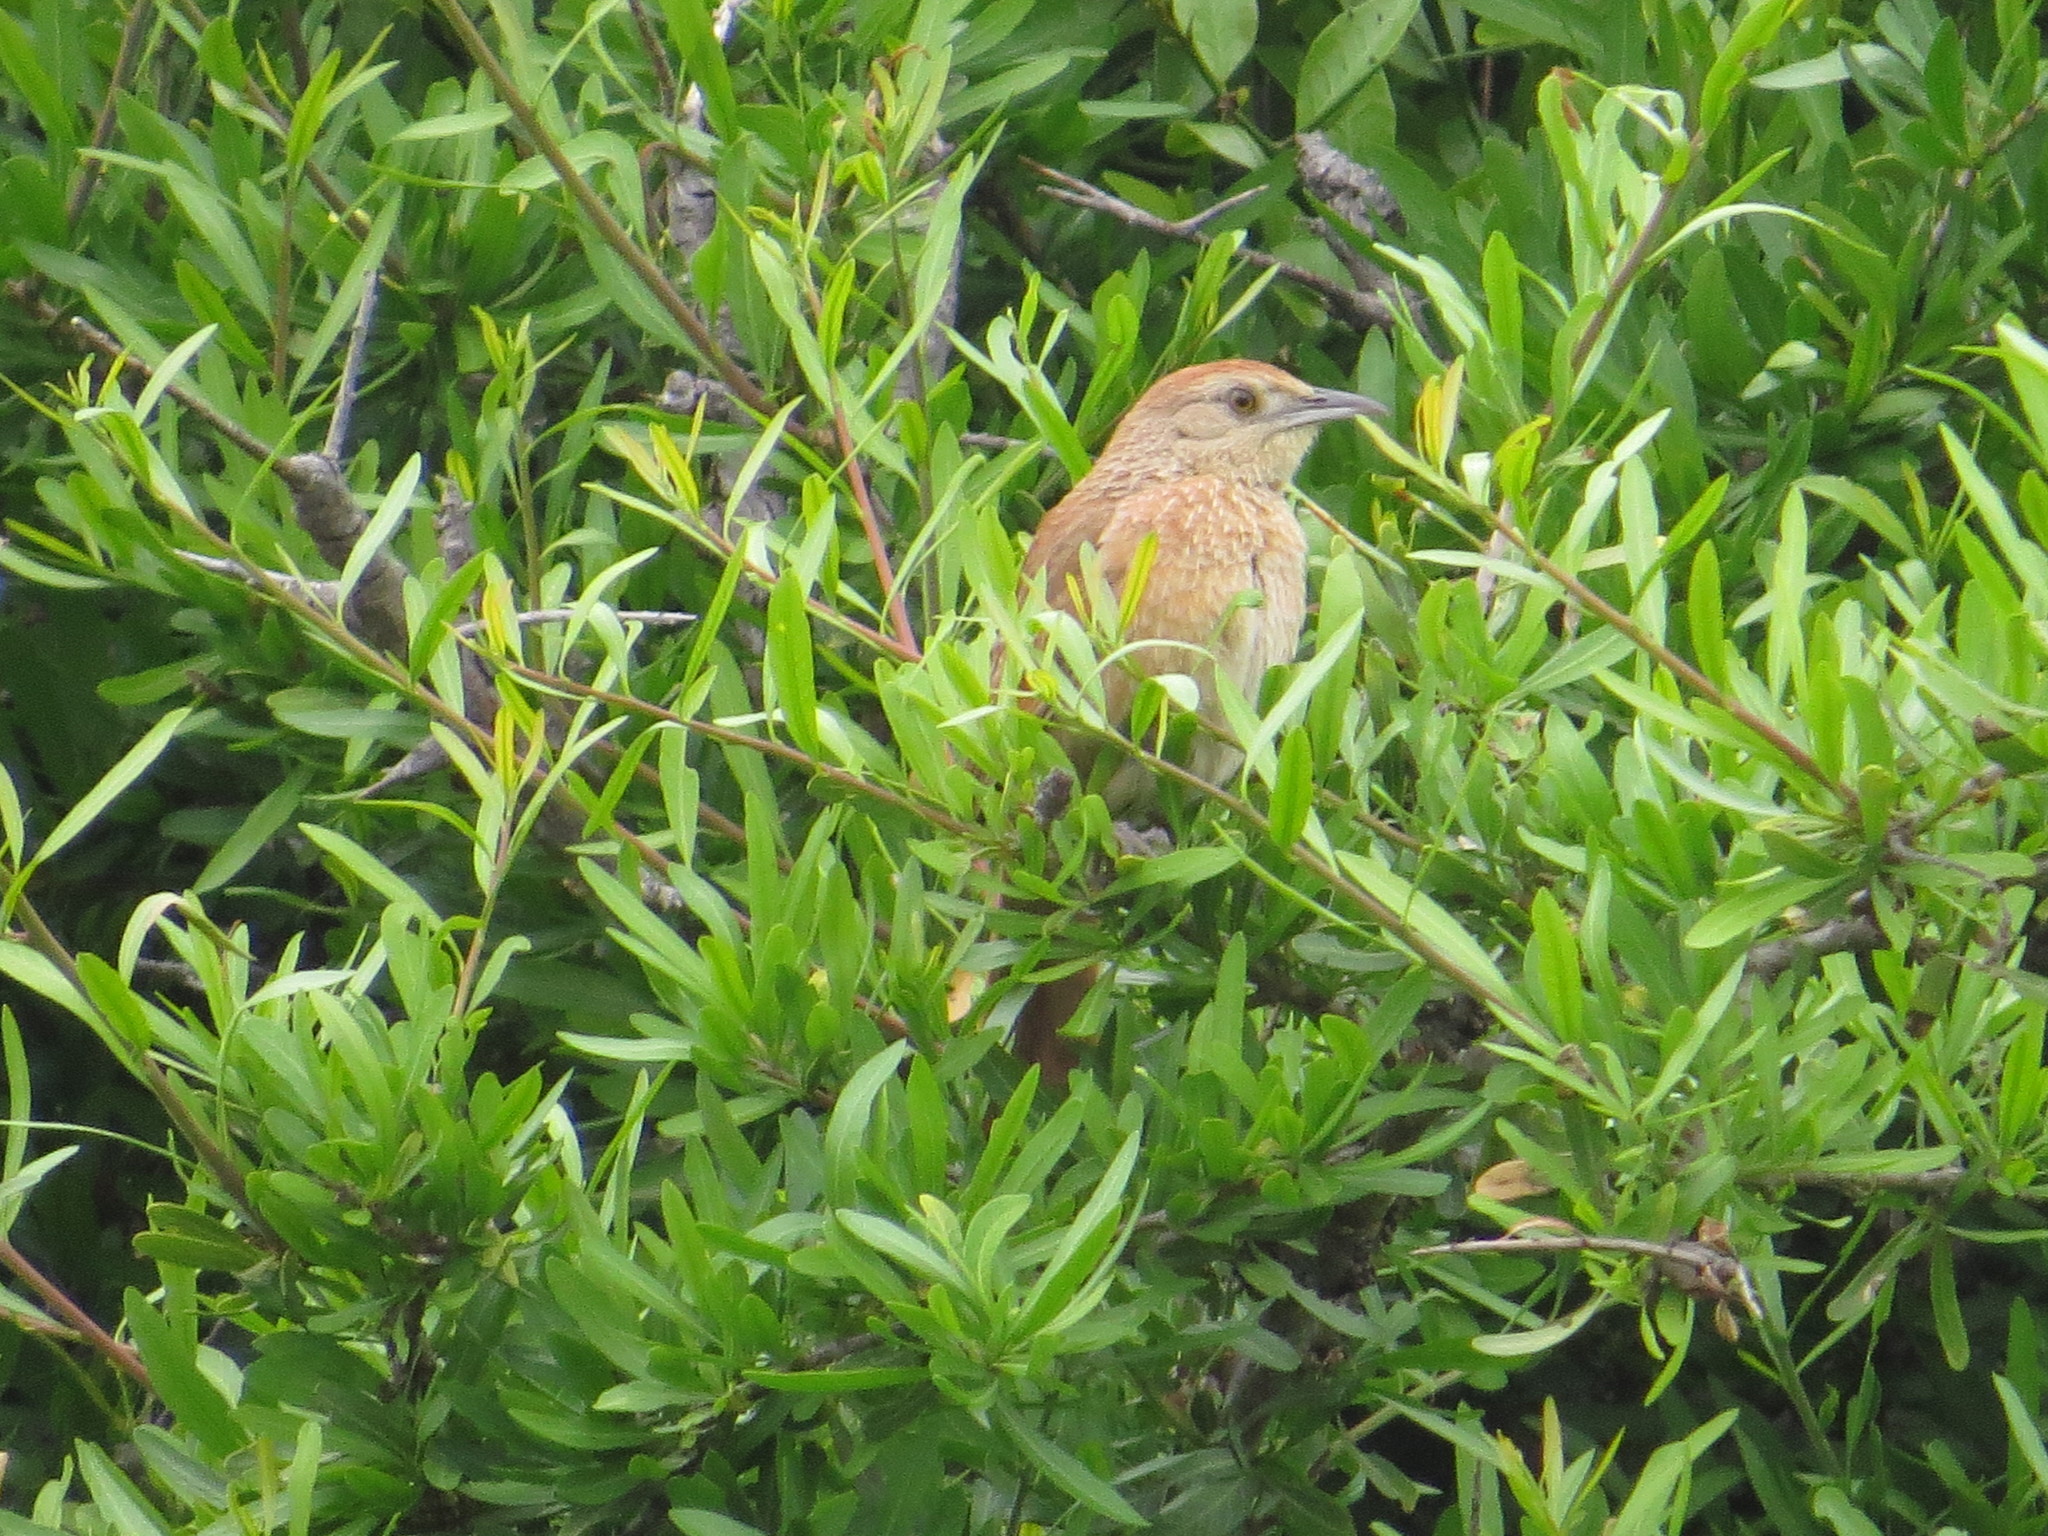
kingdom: Animalia
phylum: Chordata
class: Aves
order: Passeriformes
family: Furnariidae
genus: Phacellodomus
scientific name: Phacellodomus striaticollis
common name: Freckle-breasted thornbird
